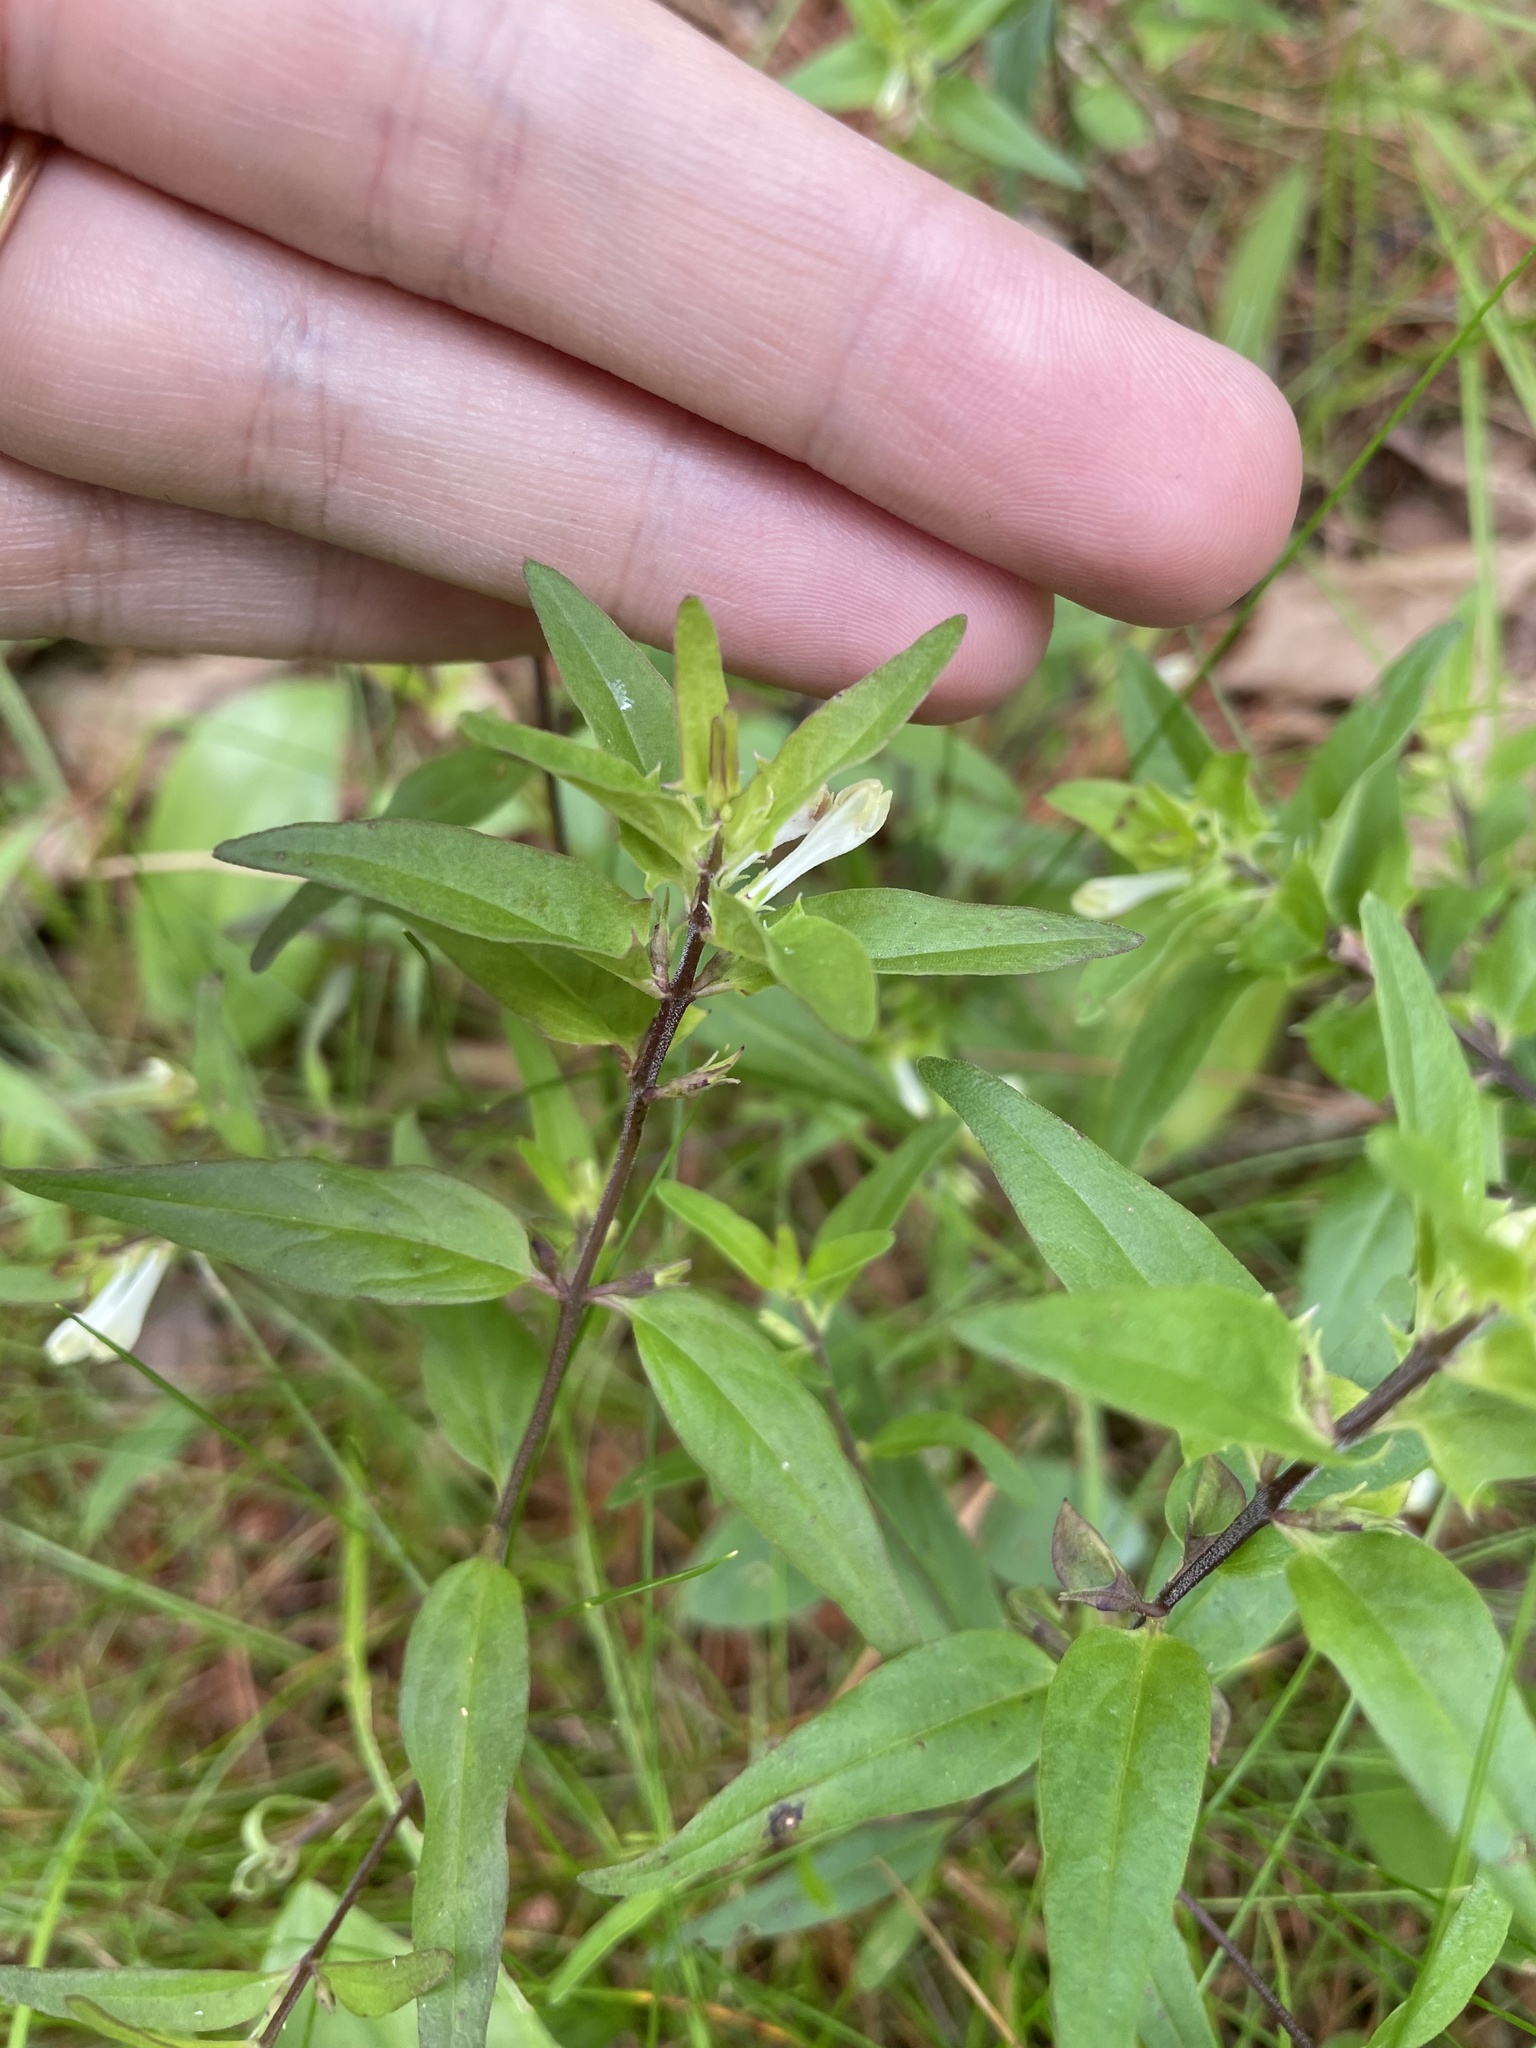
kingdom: Plantae
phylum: Tracheophyta
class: Magnoliopsida
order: Lamiales
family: Orobanchaceae
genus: Melampyrum
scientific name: Melampyrum lineare
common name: American cow-wheat
